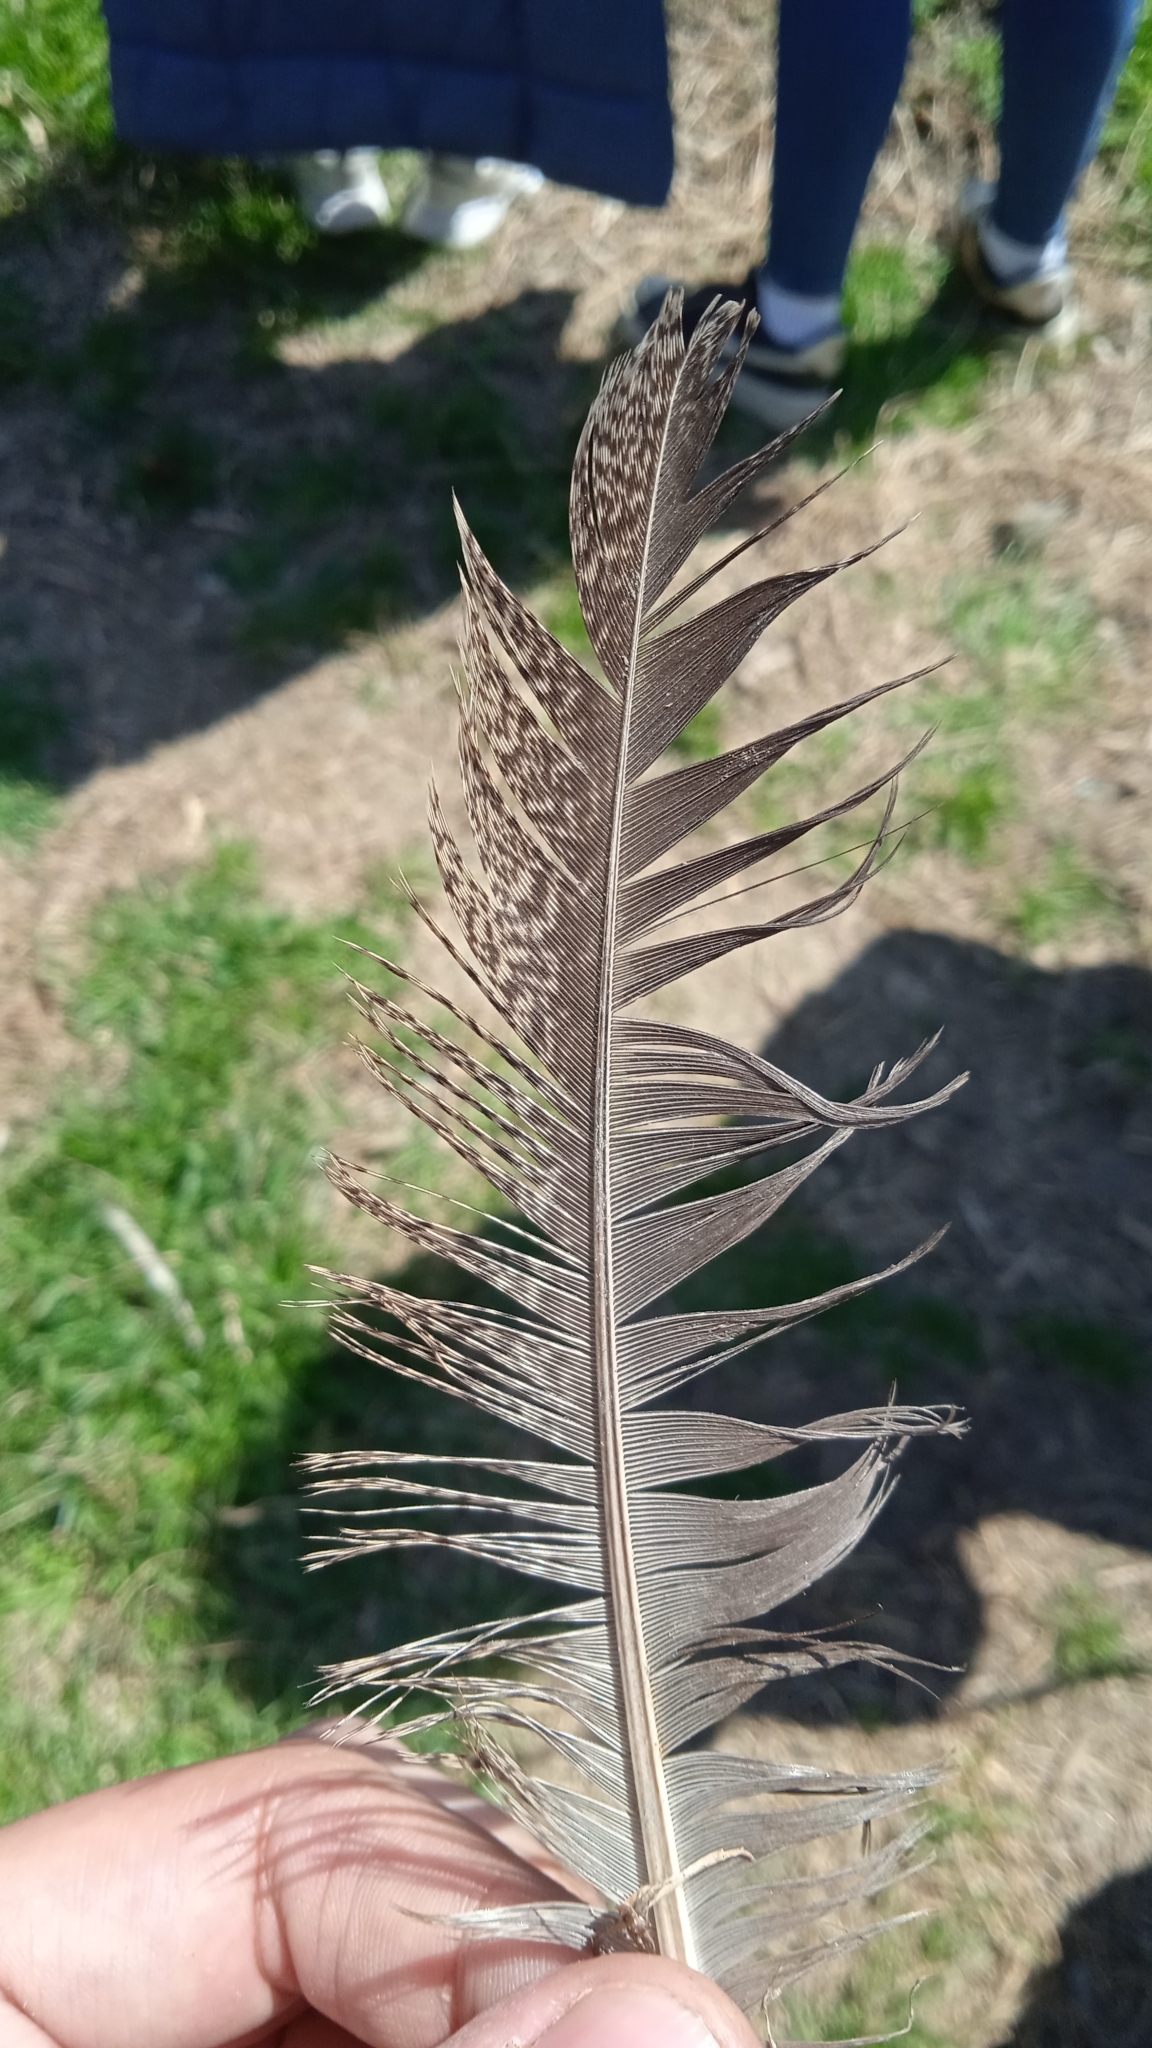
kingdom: Animalia
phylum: Chordata
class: Aves
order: Galliformes
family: Phasianidae
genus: Gallus
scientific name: Gallus gallus
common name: Red junglefowl
